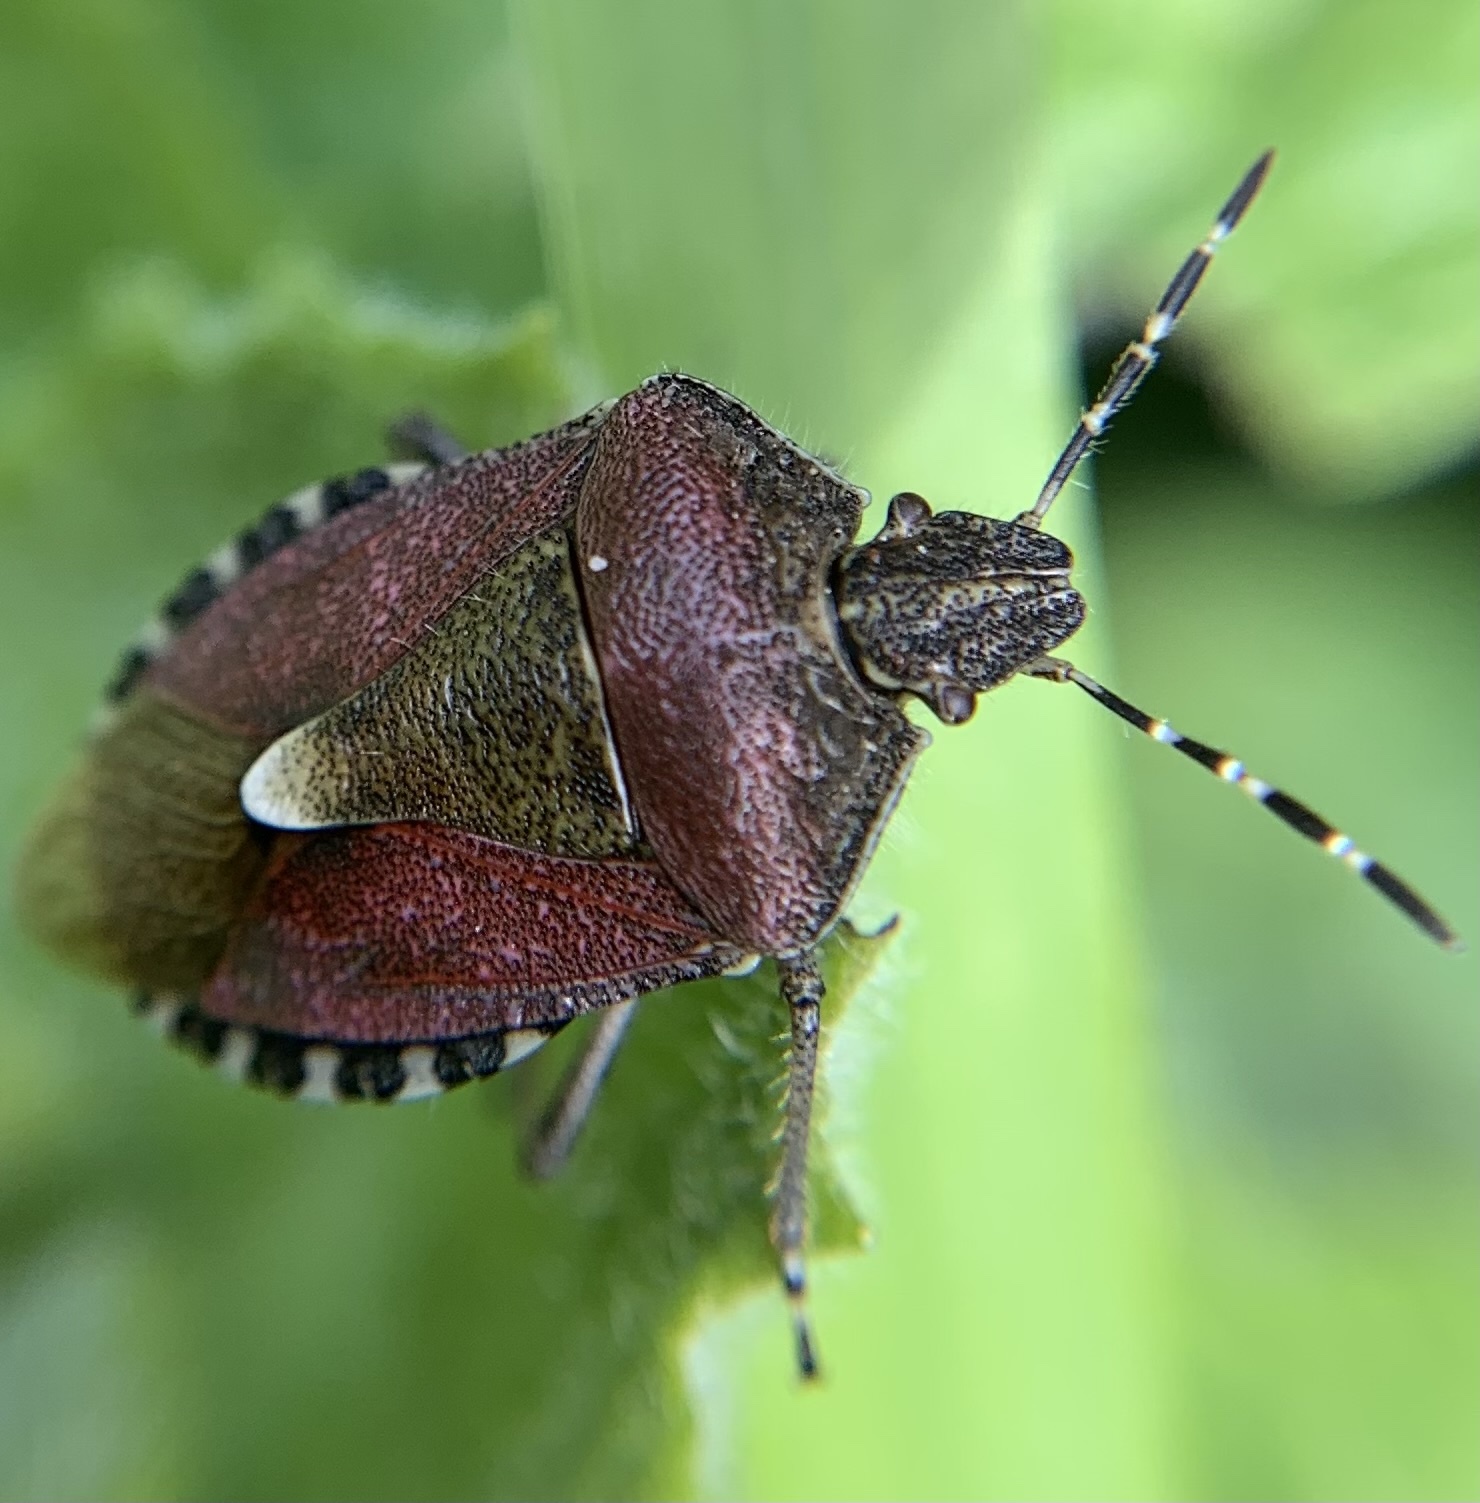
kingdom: Animalia
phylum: Arthropoda
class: Insecta
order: Hemiptera
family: Pentatomidae
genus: Dolycoris
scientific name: Dolycoris baccarum
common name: Sloe bug
